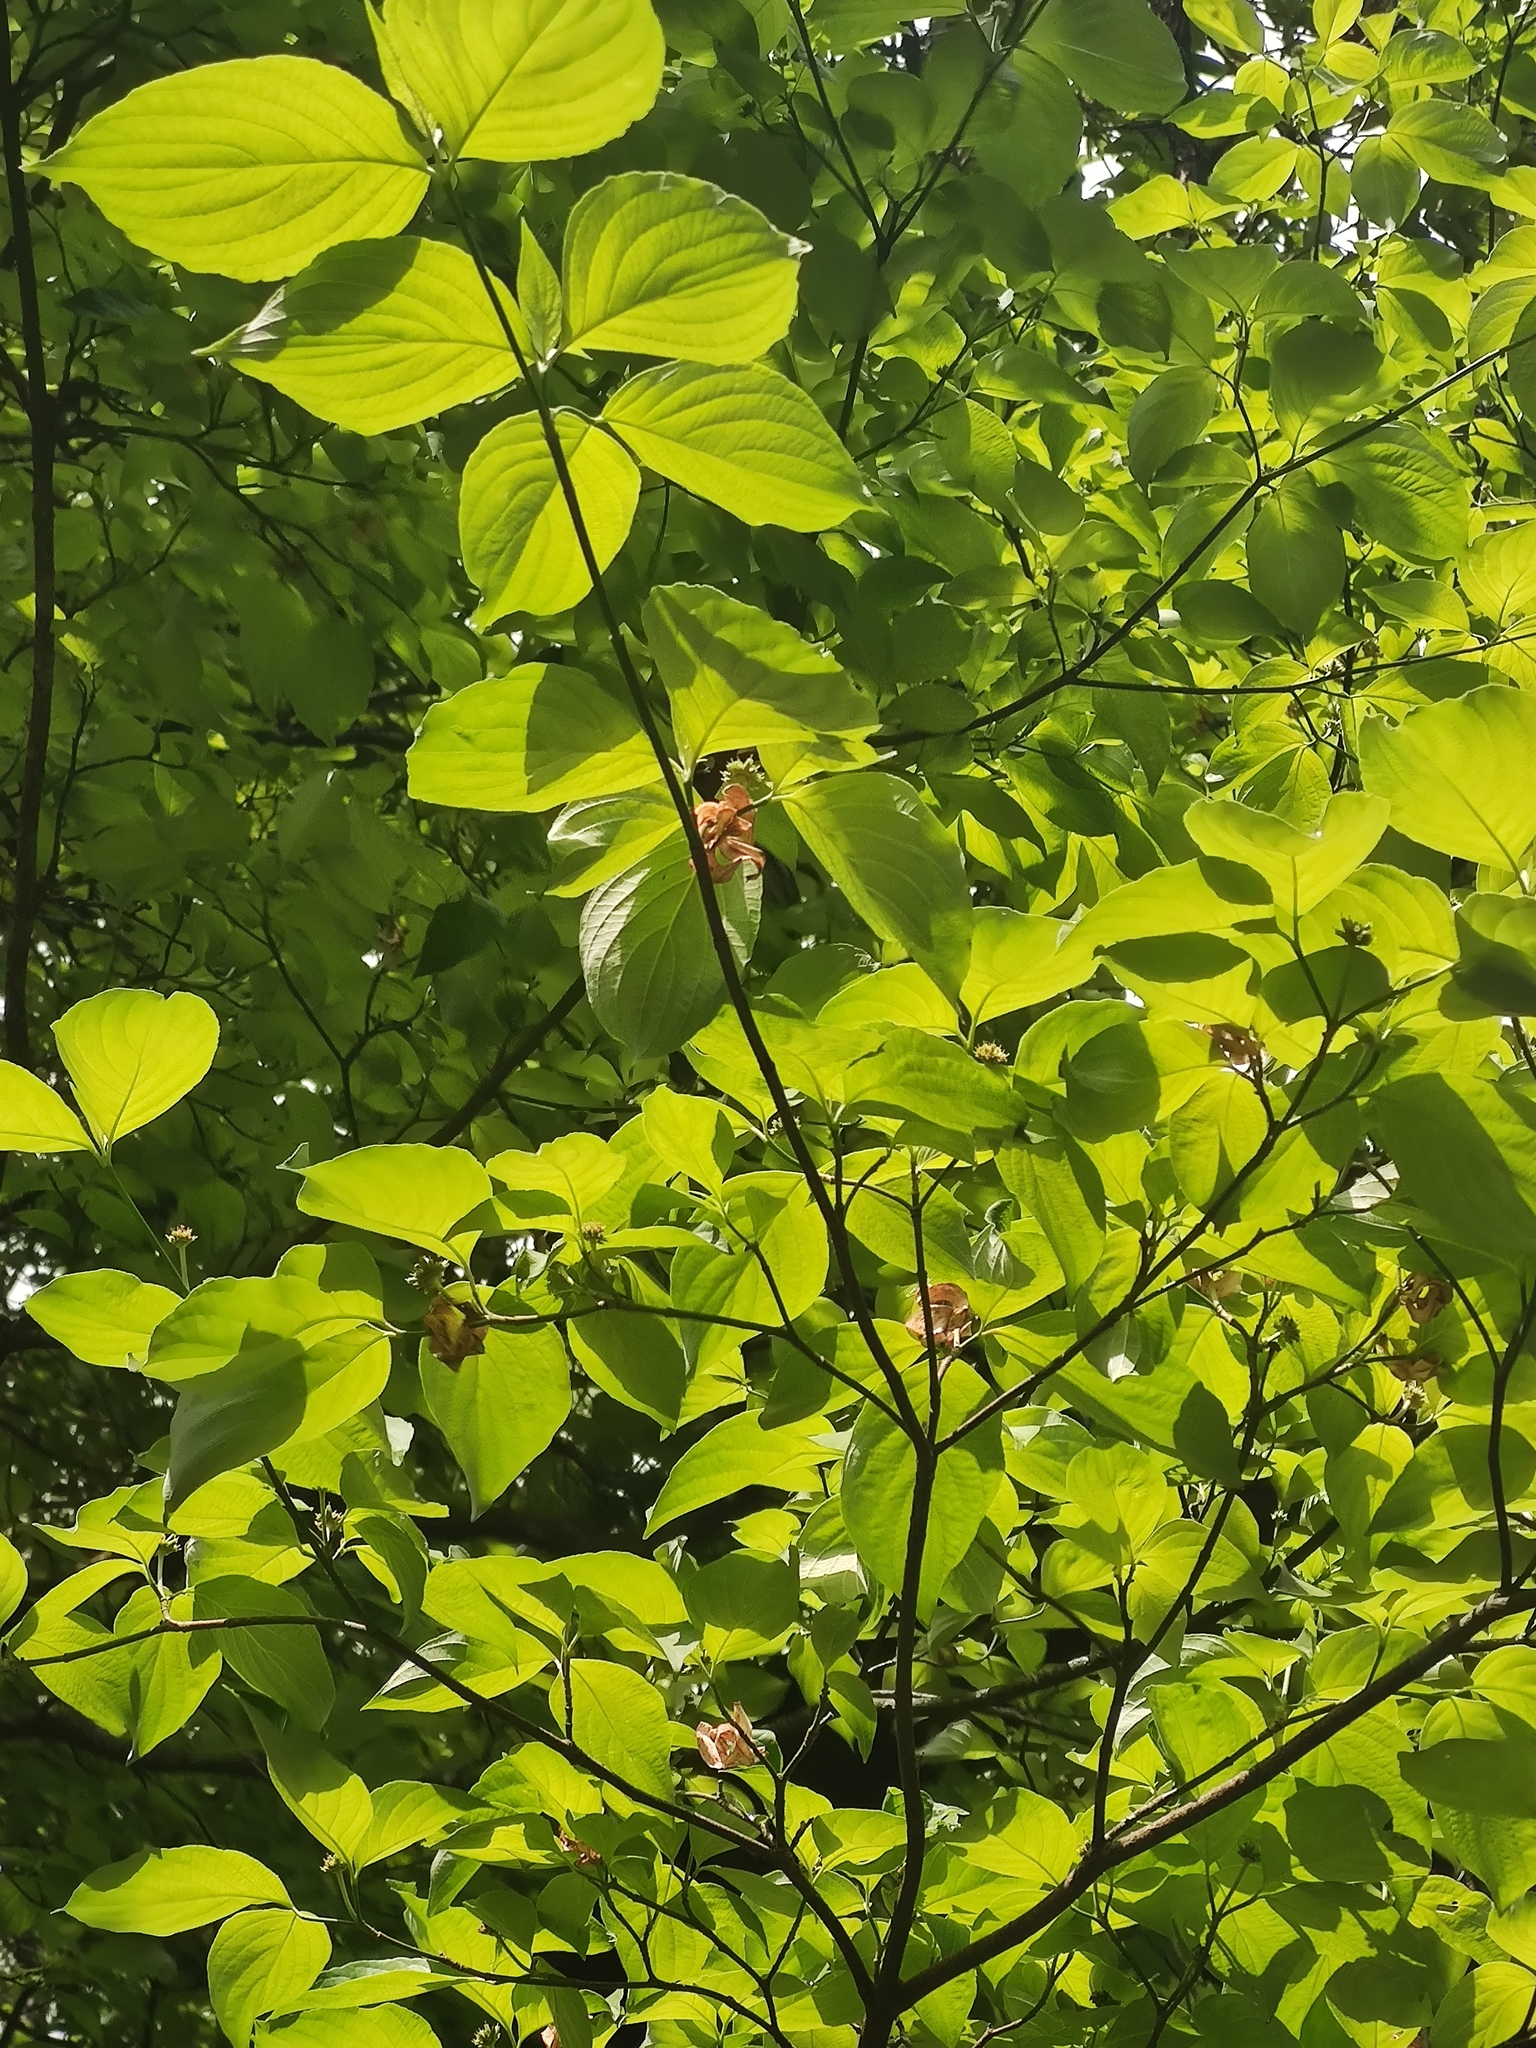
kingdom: Plantae
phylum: Tracheophyta
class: Magnoliopsida
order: Cornales
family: Cornaceae
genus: Cornus
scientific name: Cornus florida
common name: Flowering dogwood
